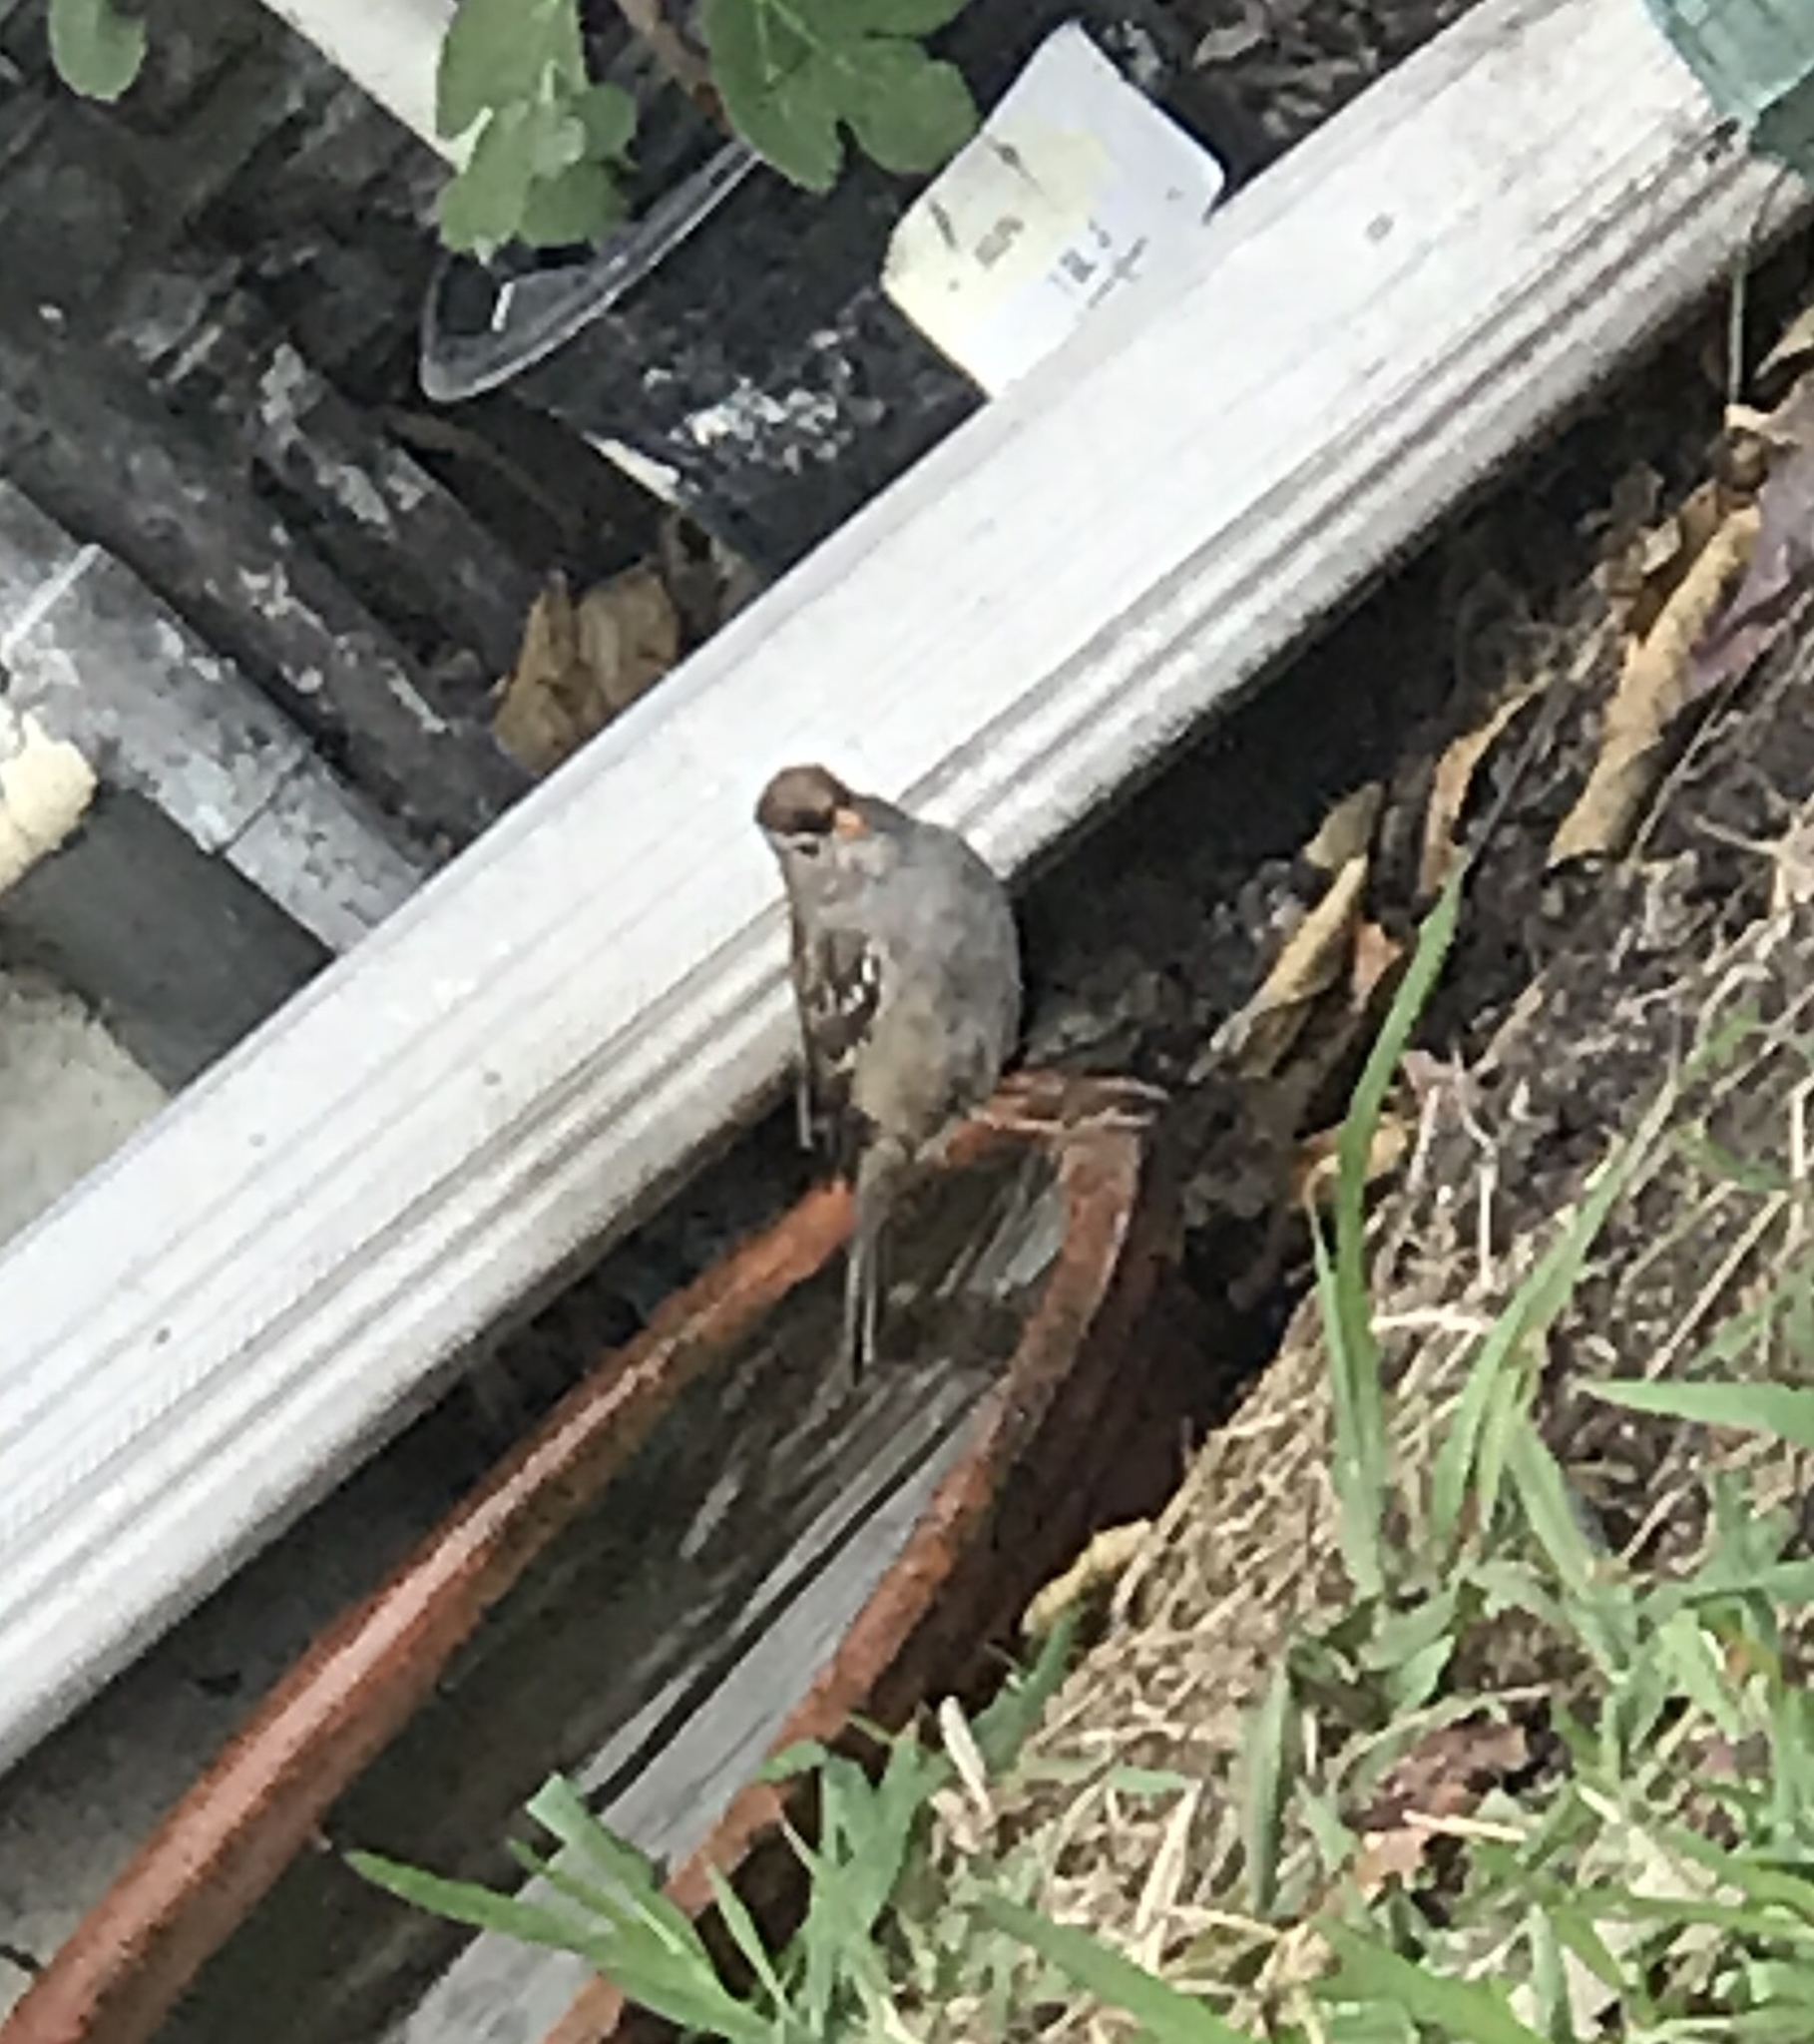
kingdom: Animalia
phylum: Chordata
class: Aves
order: Passeriformes
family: Passerellidae
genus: Zonotrichia
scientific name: Zonotrichia leucophrys
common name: White-crowned sparrow
